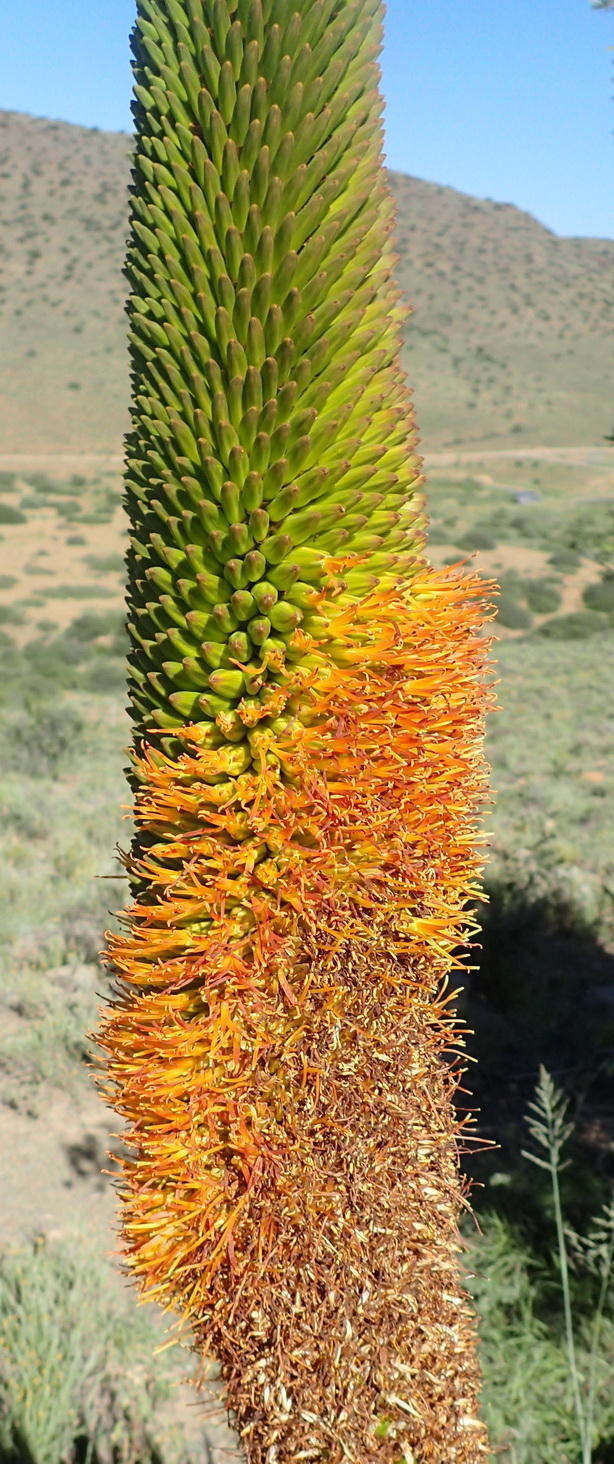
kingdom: Plantae
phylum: Tracheophyta
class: Liliopsida
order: Asparagales
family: Asphodelaceae
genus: Aloe
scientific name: Aloe broomii
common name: Berg alwyn
